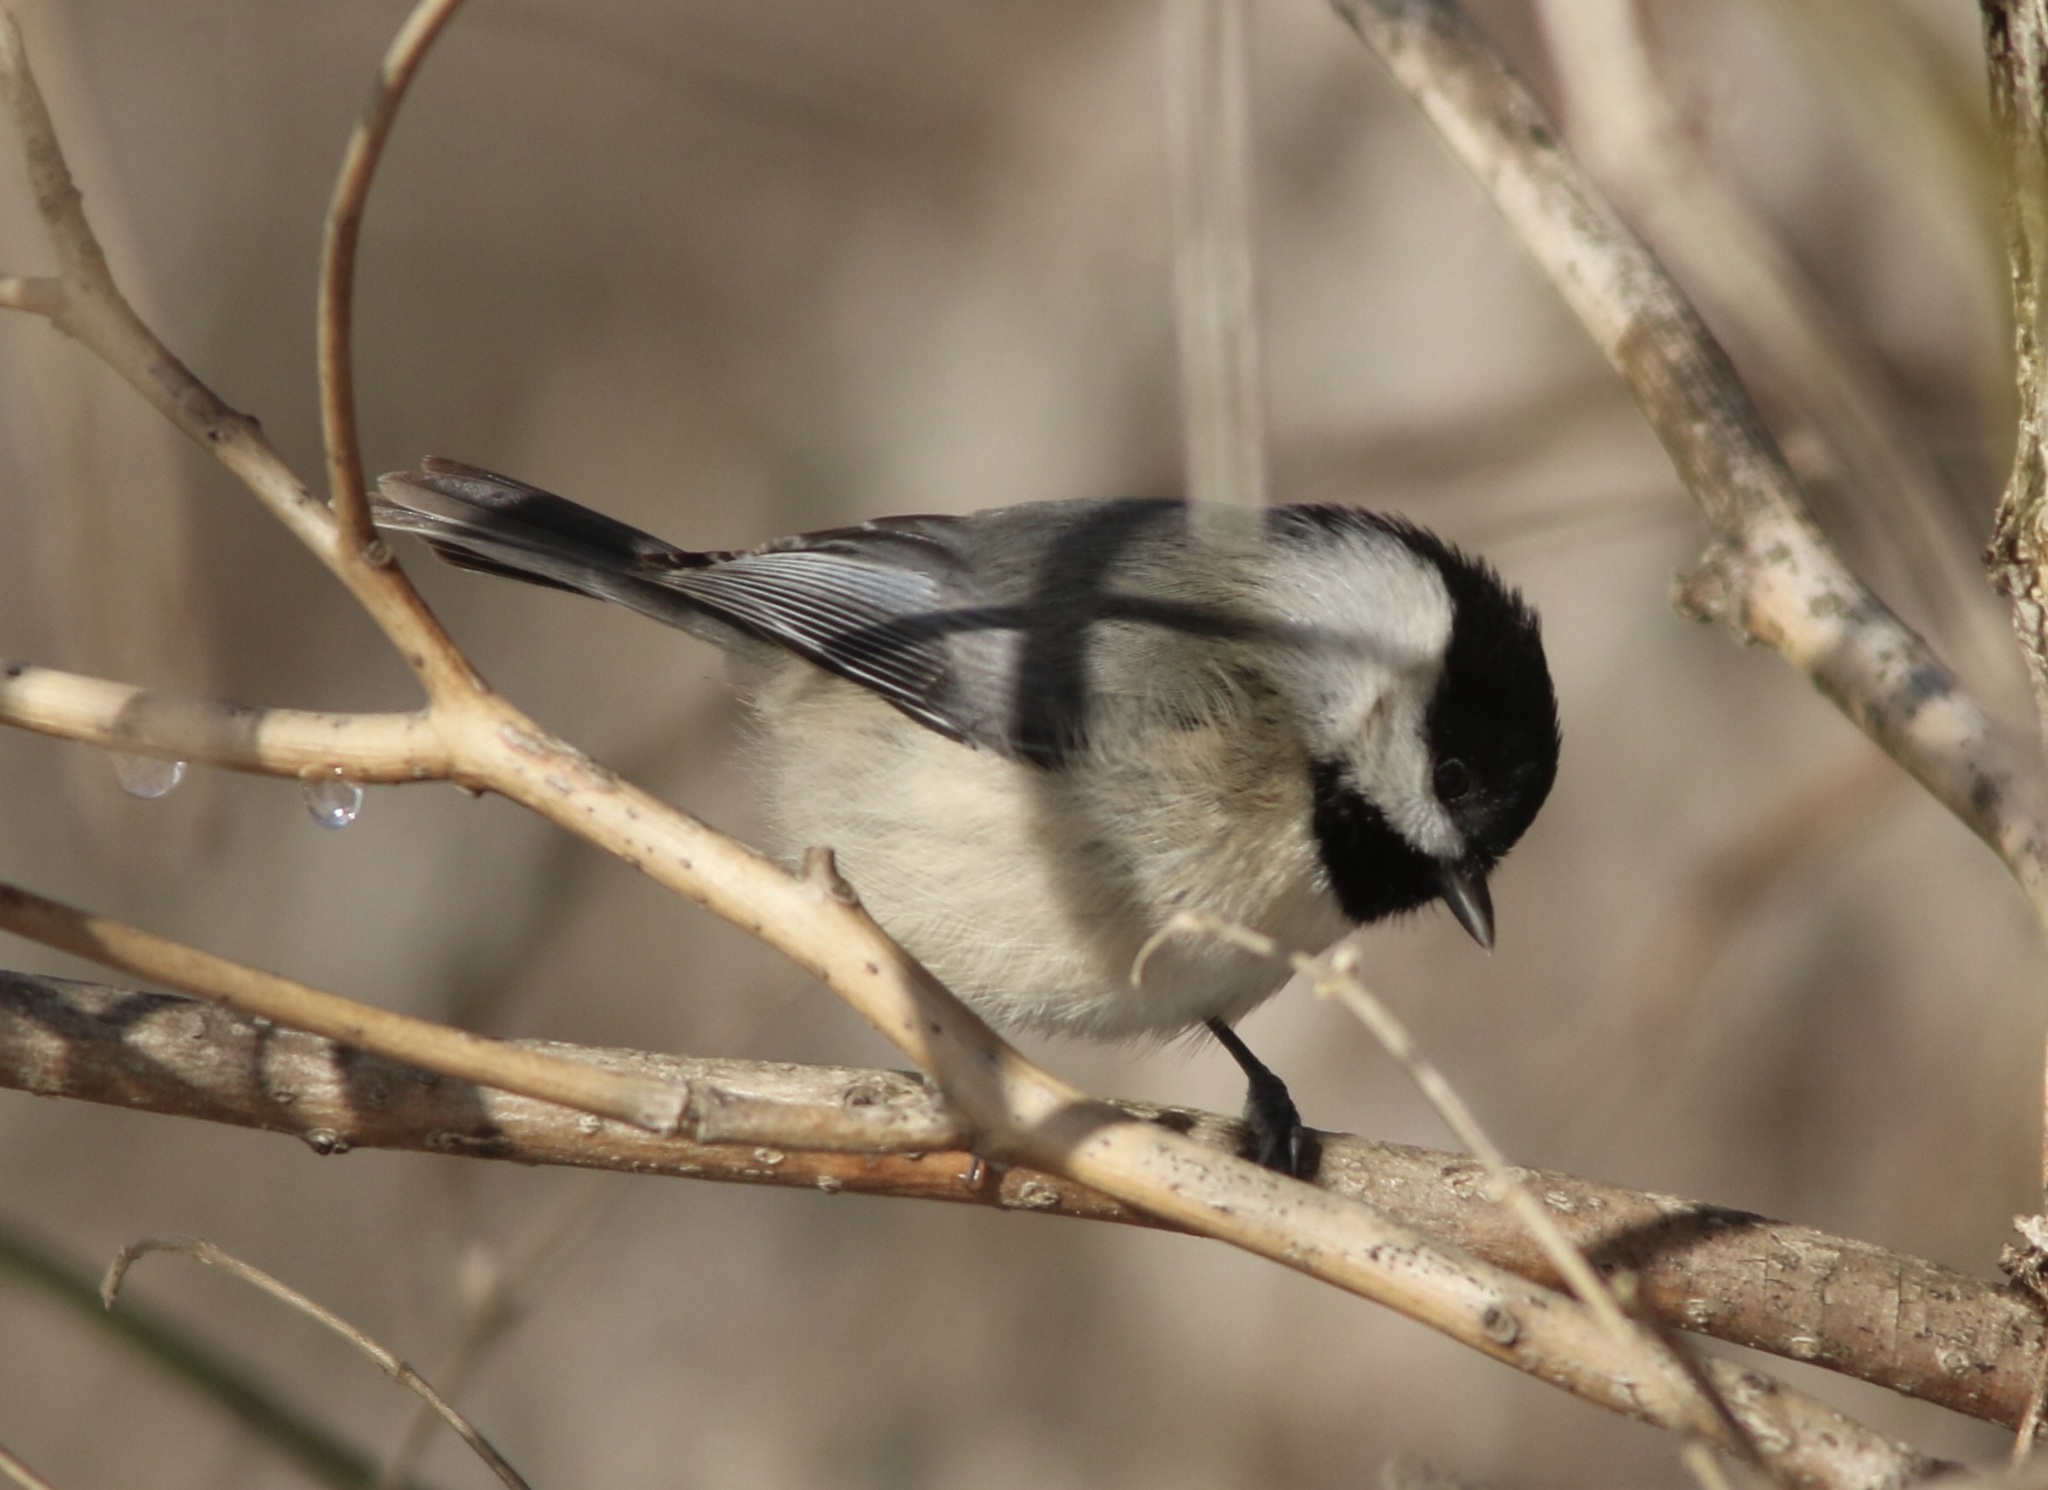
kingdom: Animalia
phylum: Chordata
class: Aves
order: Passeriformes
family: Paridae
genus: Poecile
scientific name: Poecile carolinensis
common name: Carolina chickadee
